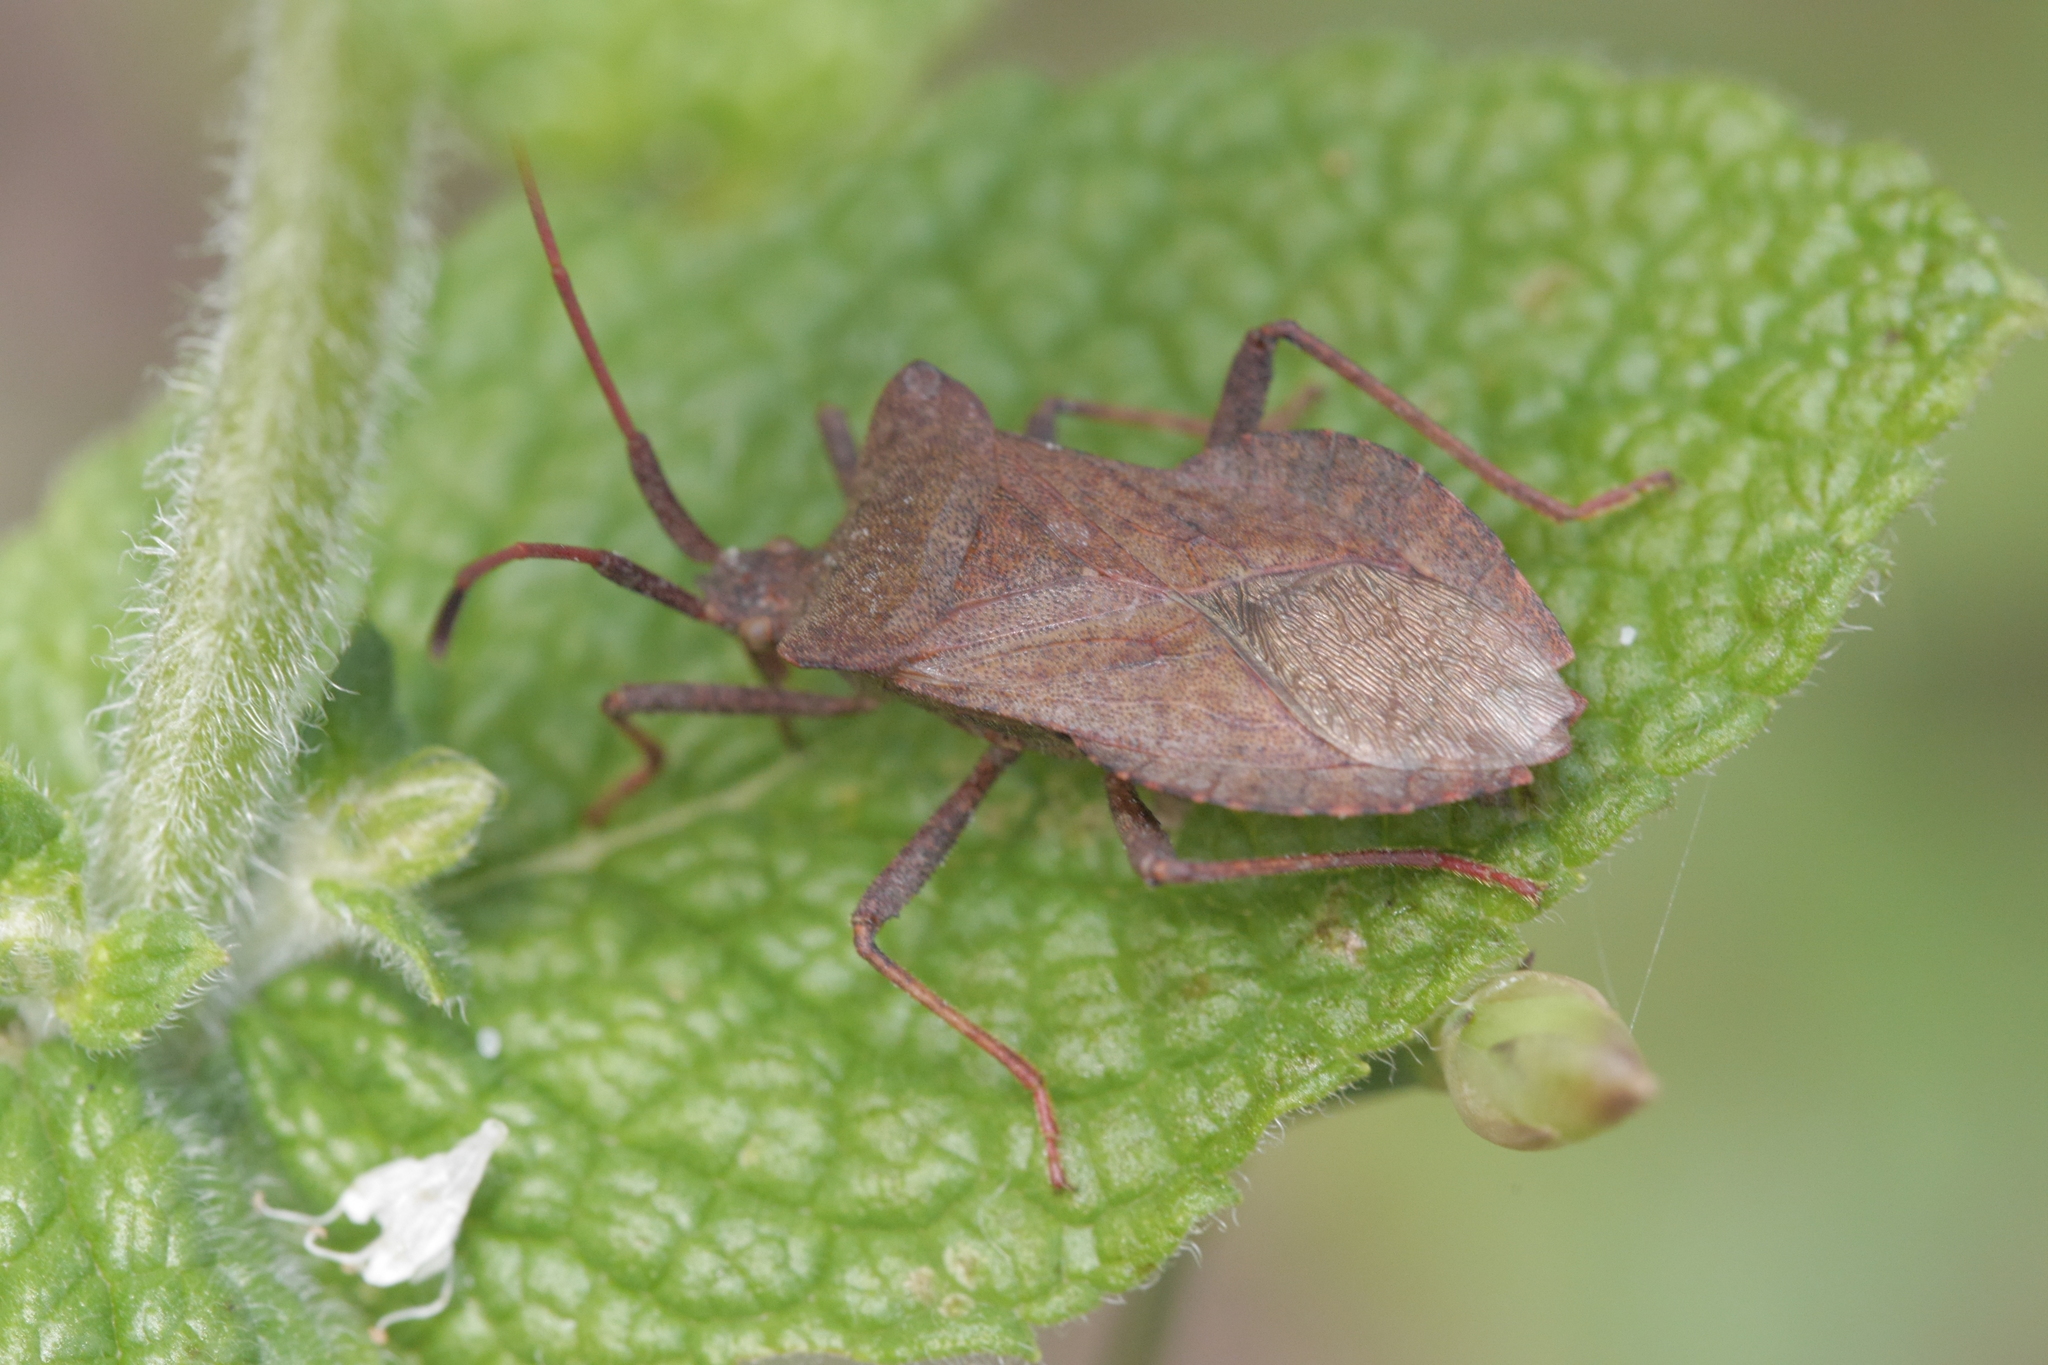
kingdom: Animalia
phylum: Arthropoda
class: Insecta
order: Hemiptera
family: Coreidae
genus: Coreus
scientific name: Coreus marginatus
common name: Dock bug
